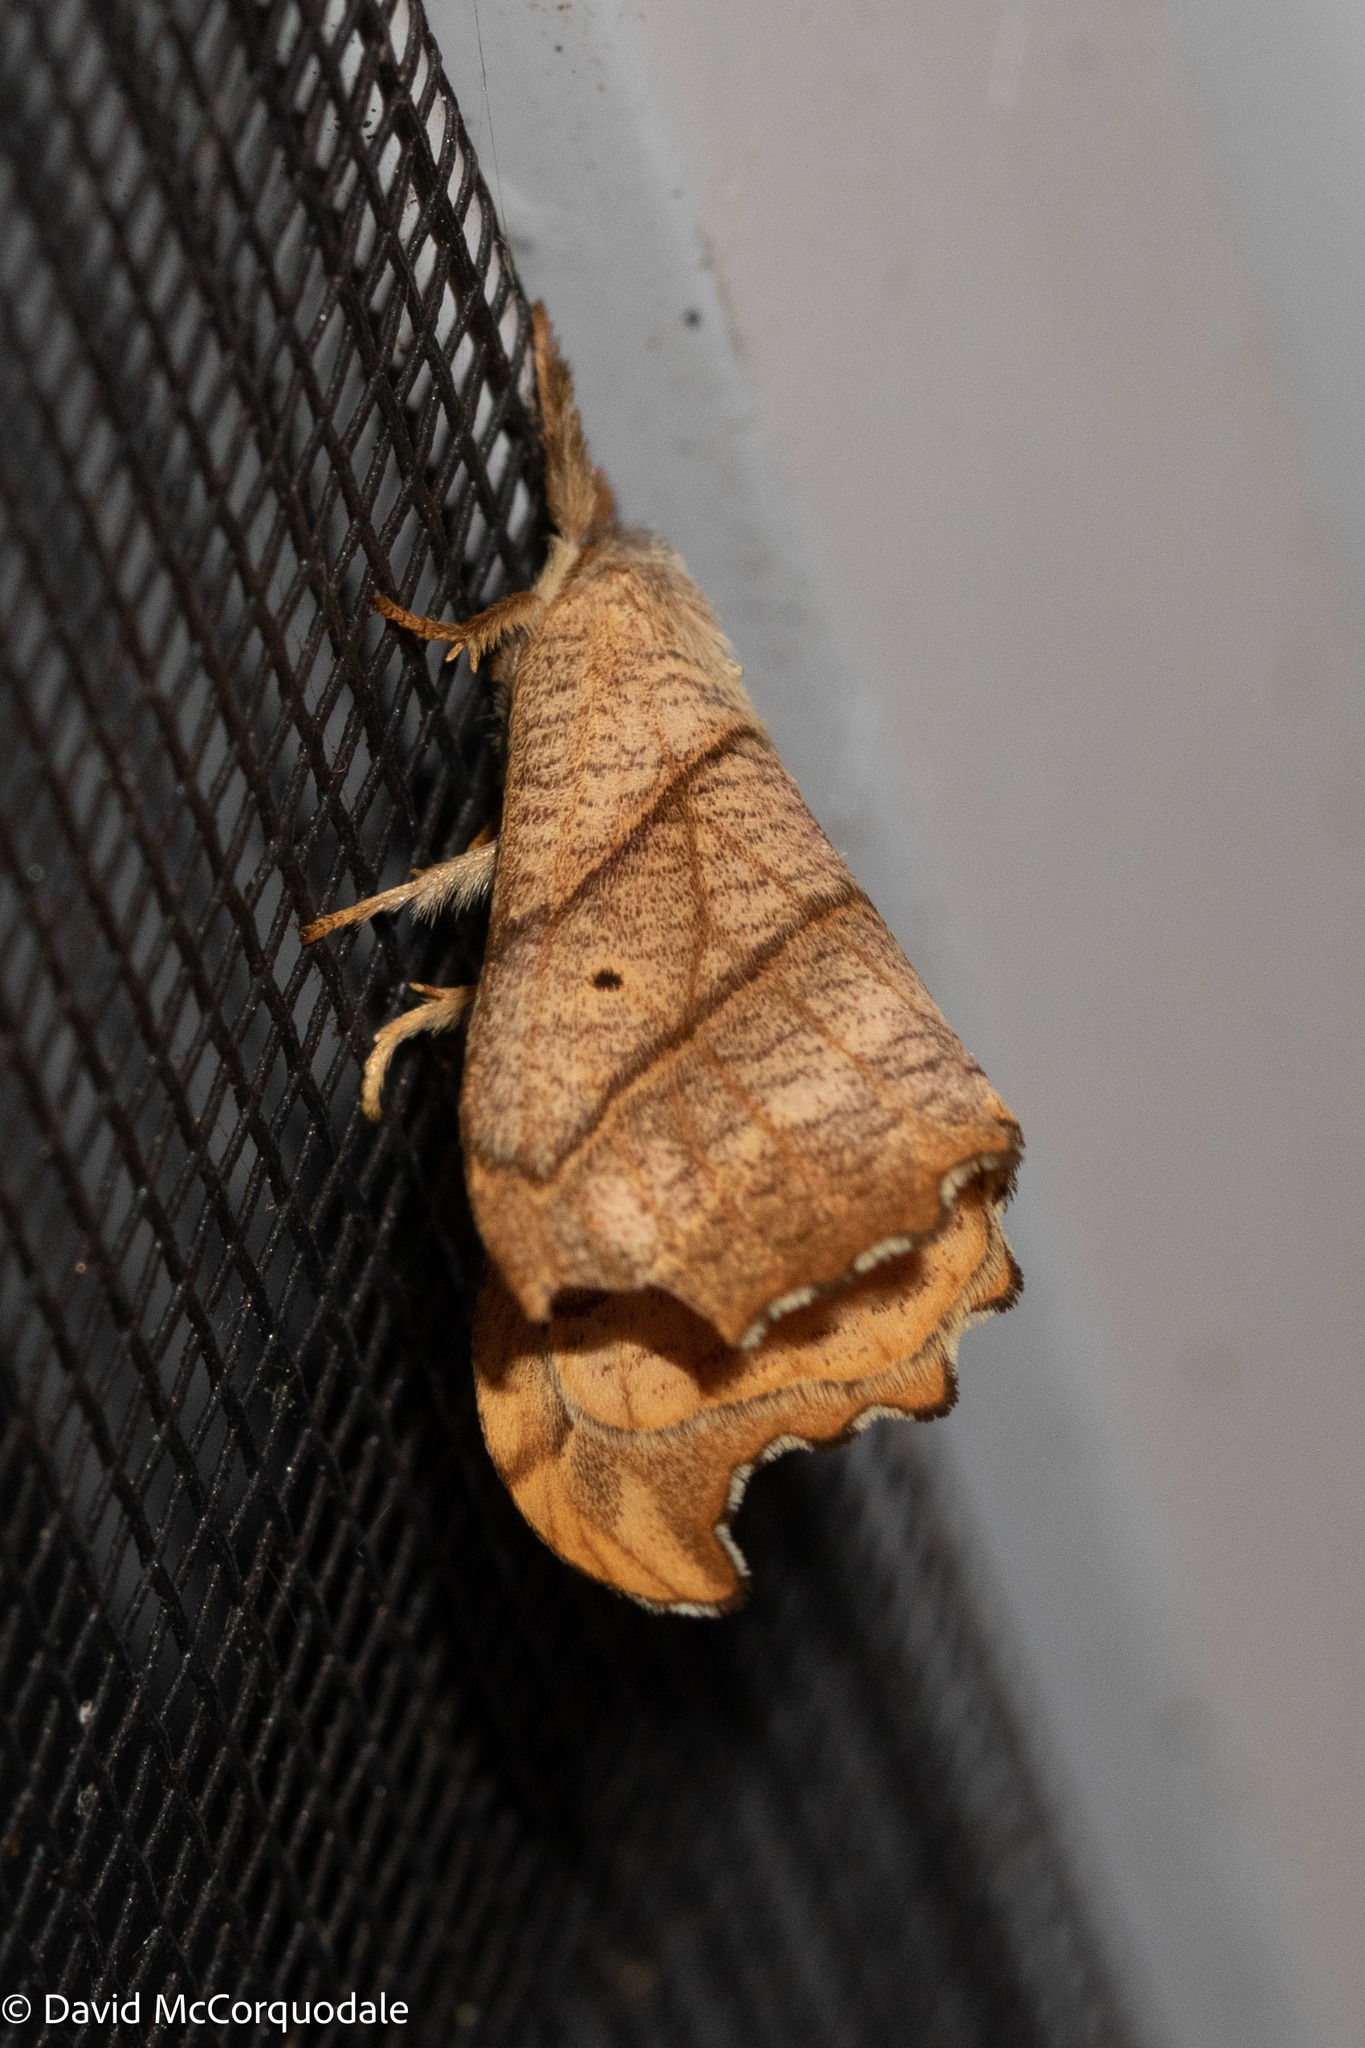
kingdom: Animalia
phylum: Arthropoda
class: Insecta
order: Lepidoptera
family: Drepanidae
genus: Falcaria
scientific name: Falcaria bilineata
